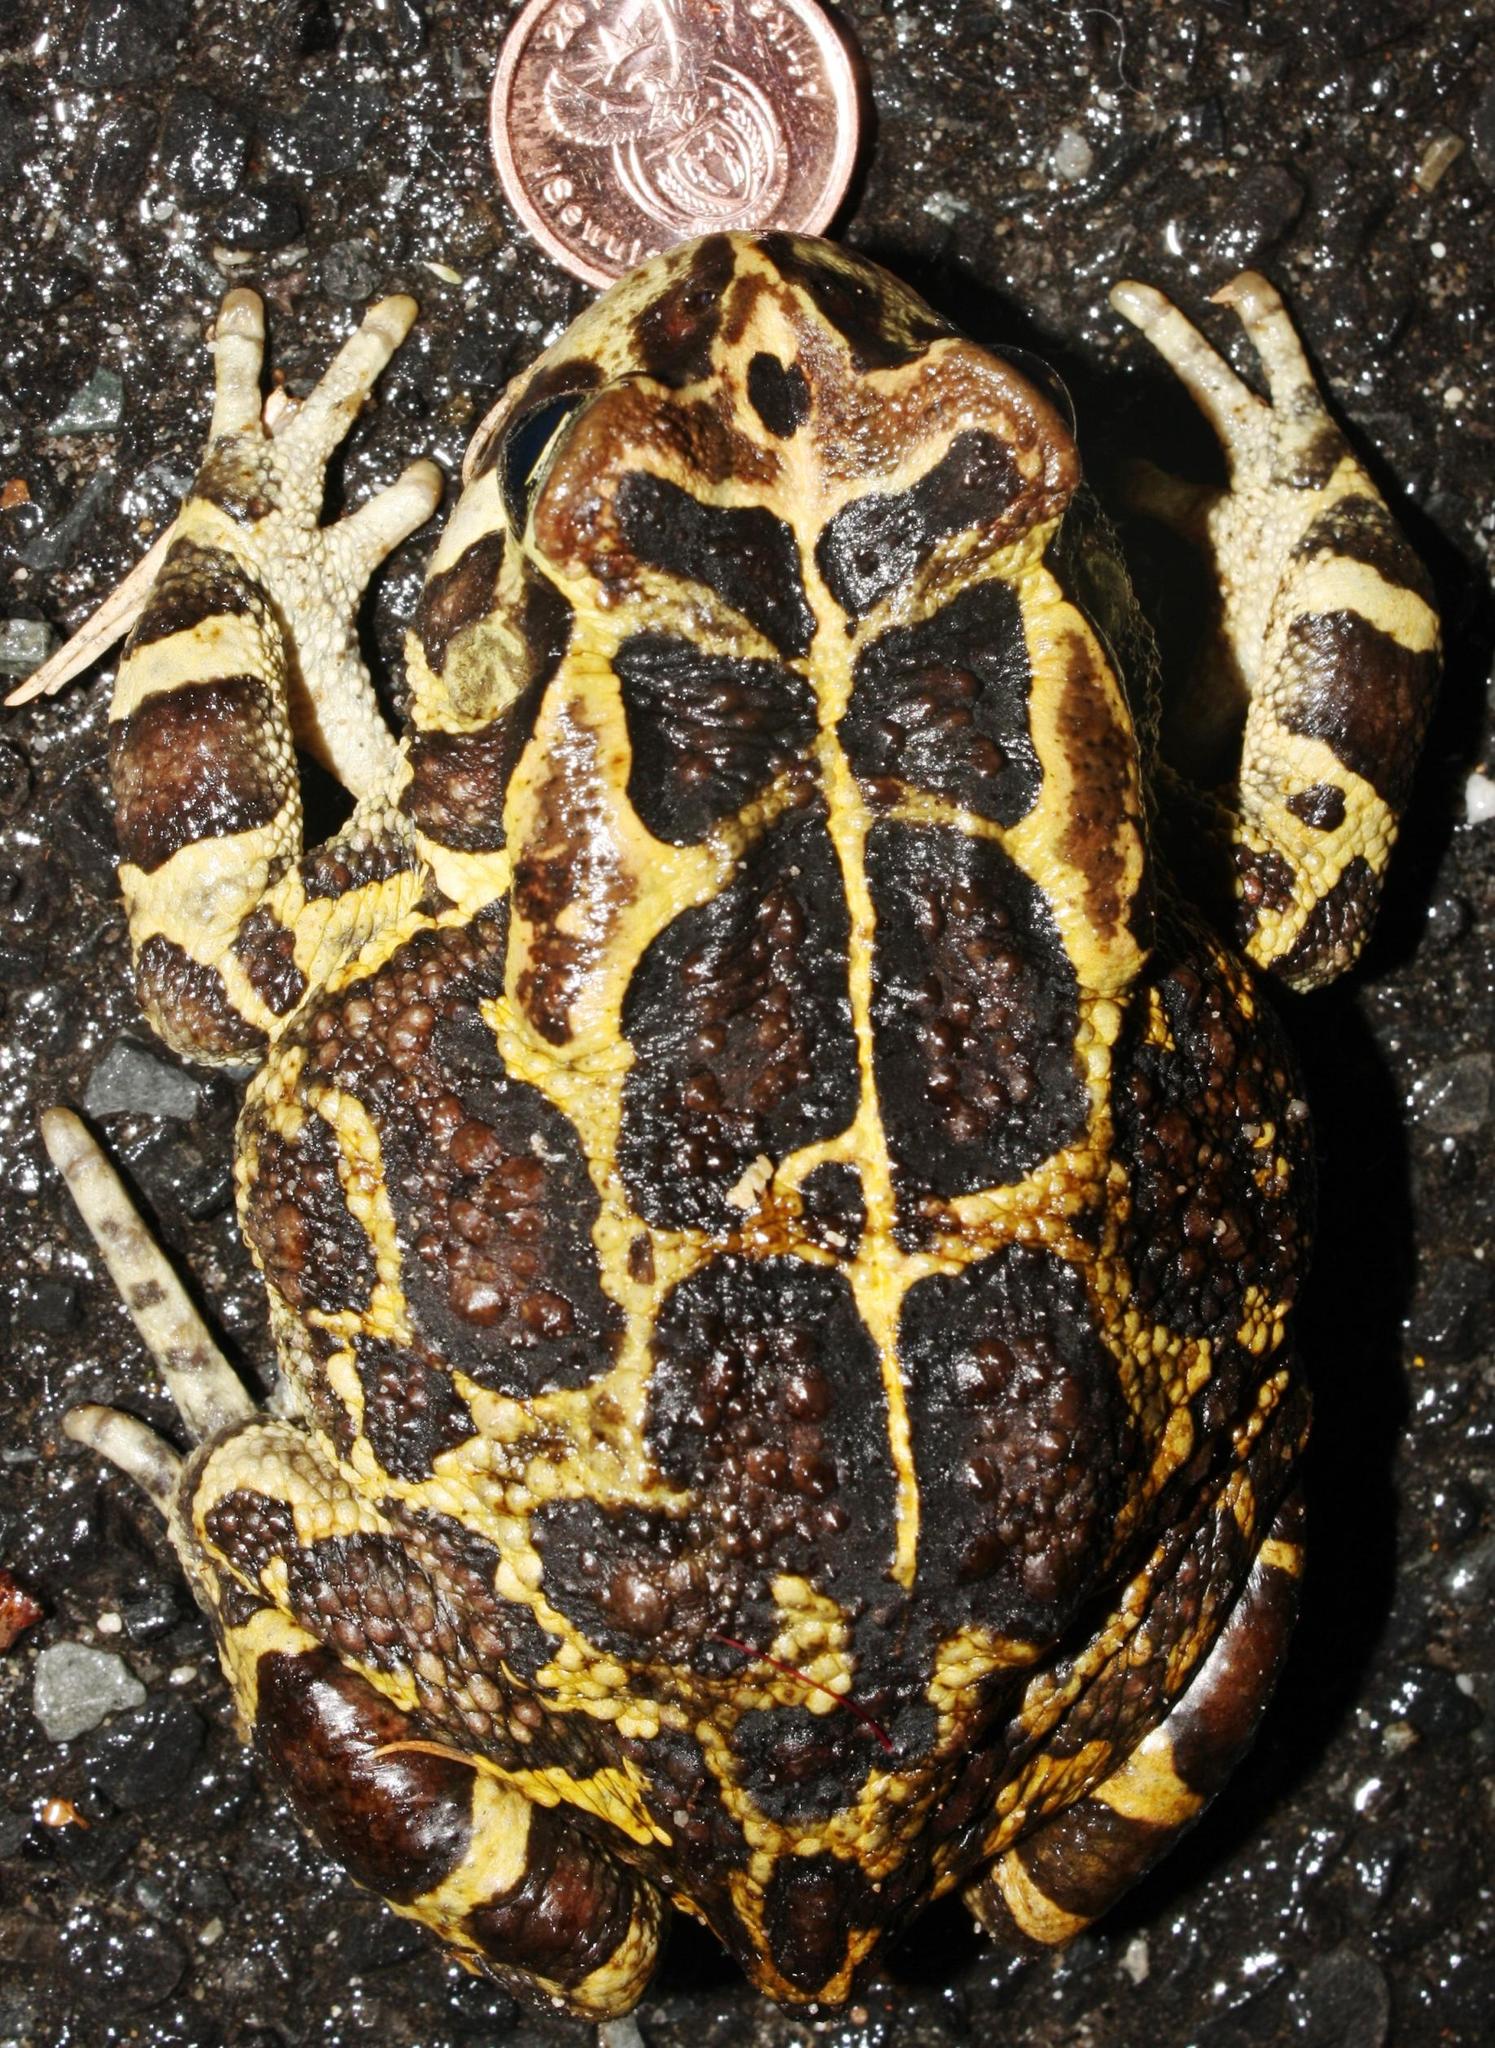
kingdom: Animalia
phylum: Chordata
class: Amphibia
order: Anura
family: Bufonidae
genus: Sclerophrys
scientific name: Sclerophrys pantherina
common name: Panther toad
